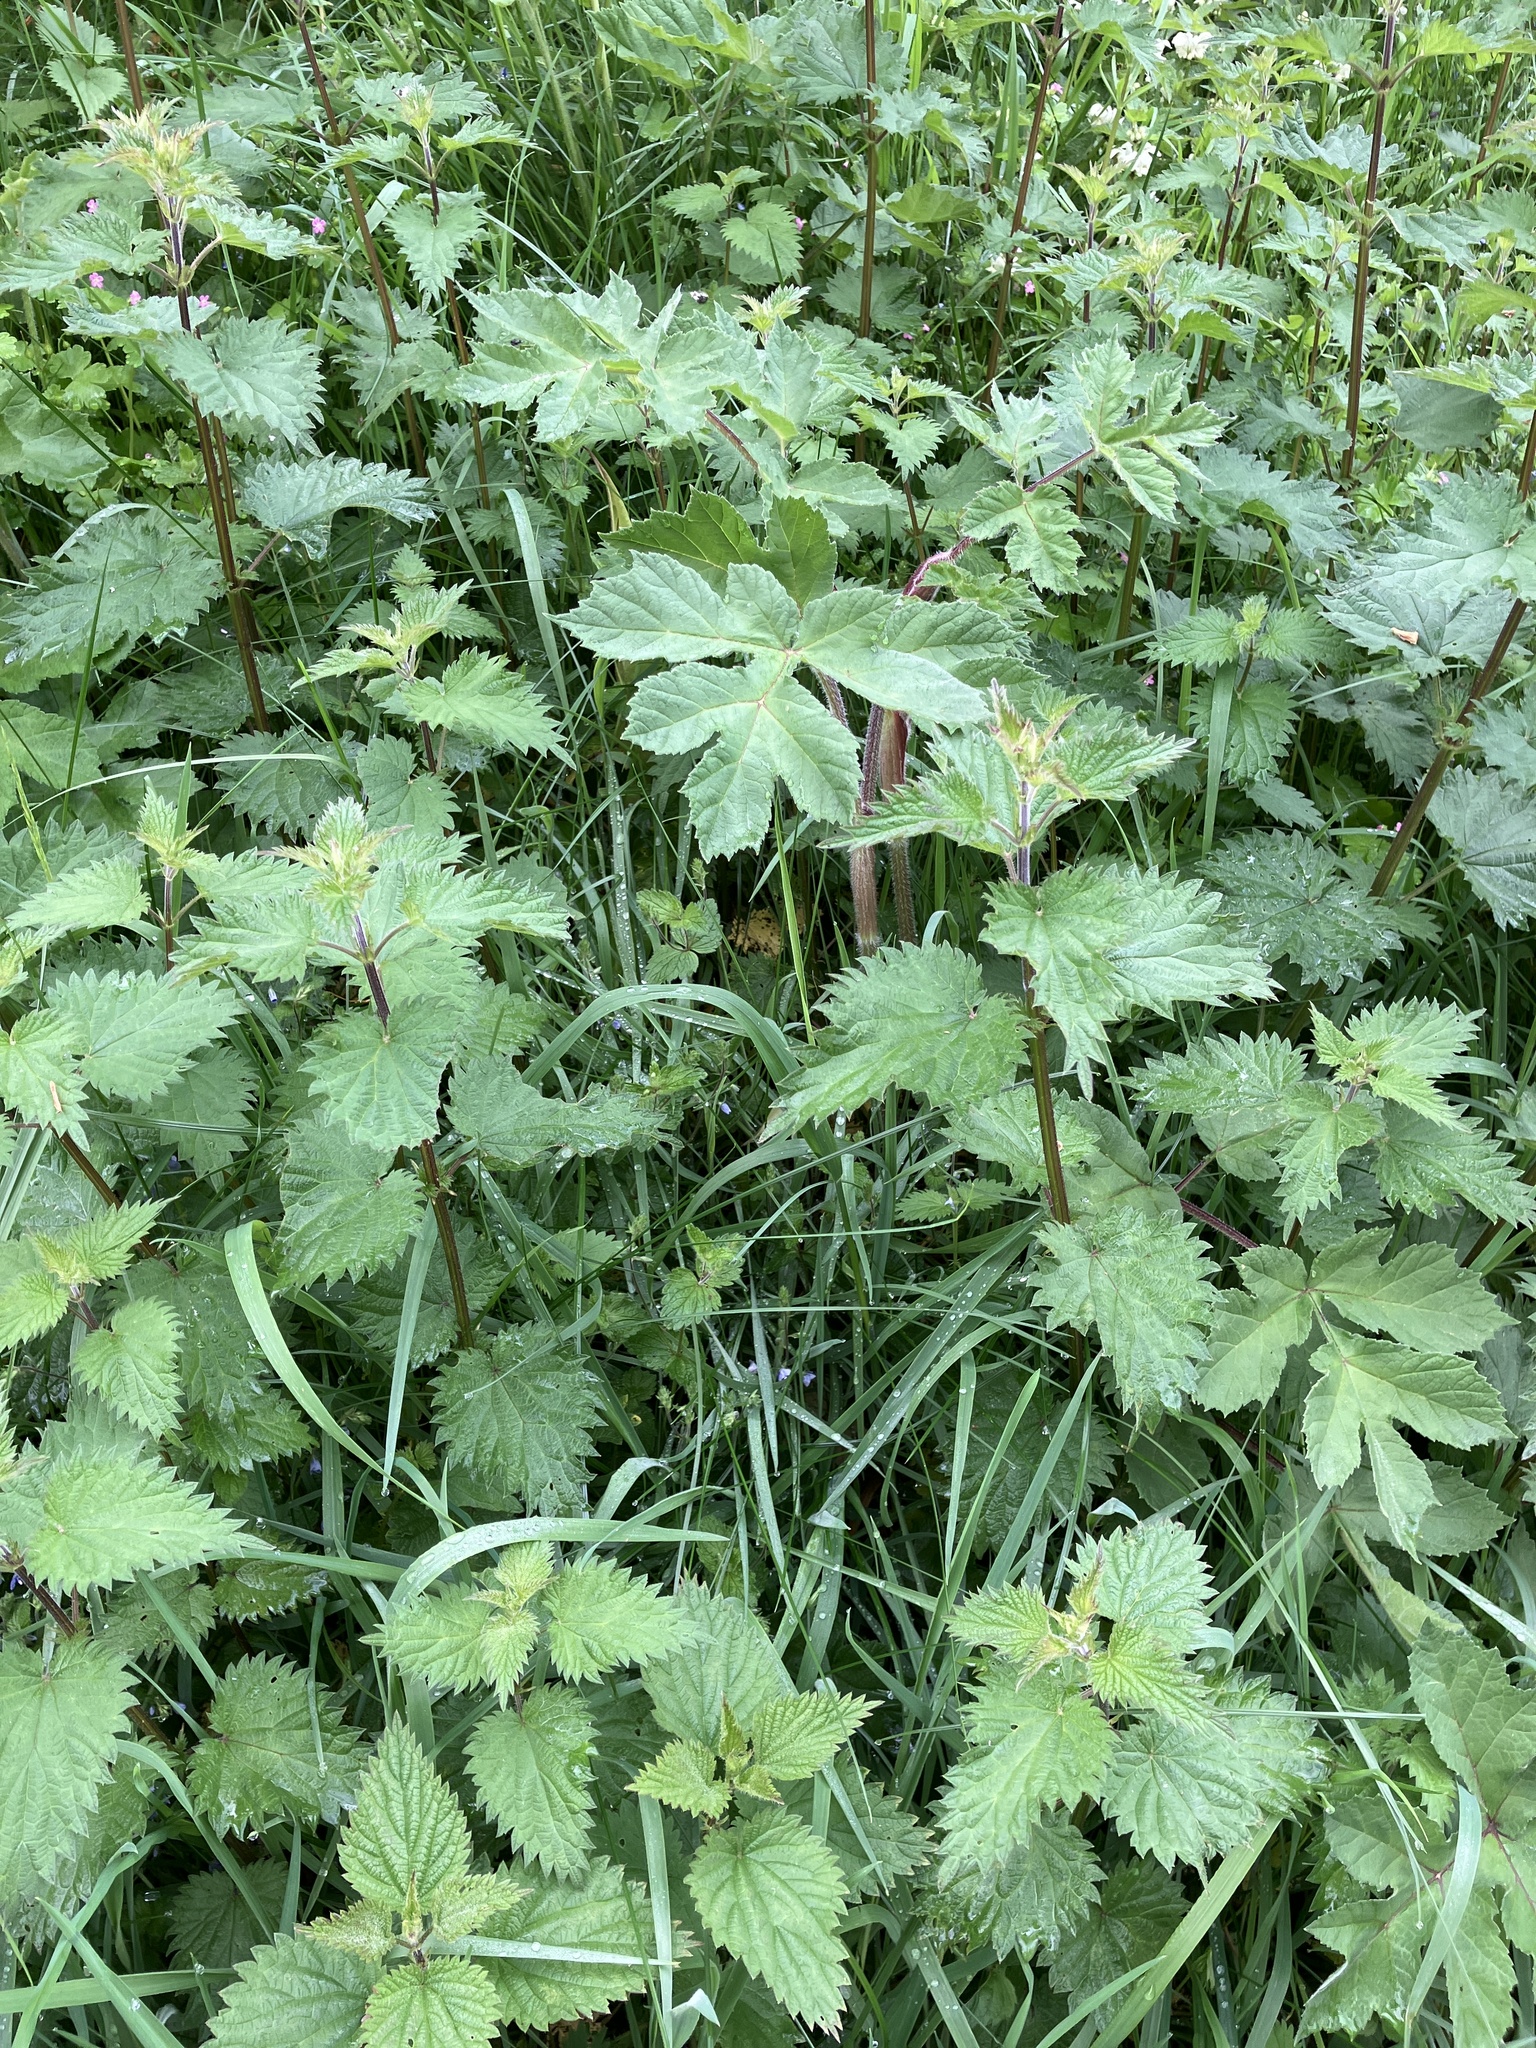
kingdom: Plantae
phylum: Tracheophyta
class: Magnoliopsida
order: Rosales
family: Urticaceae
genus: Urtica
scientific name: Urtica dioica
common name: Common nettle
